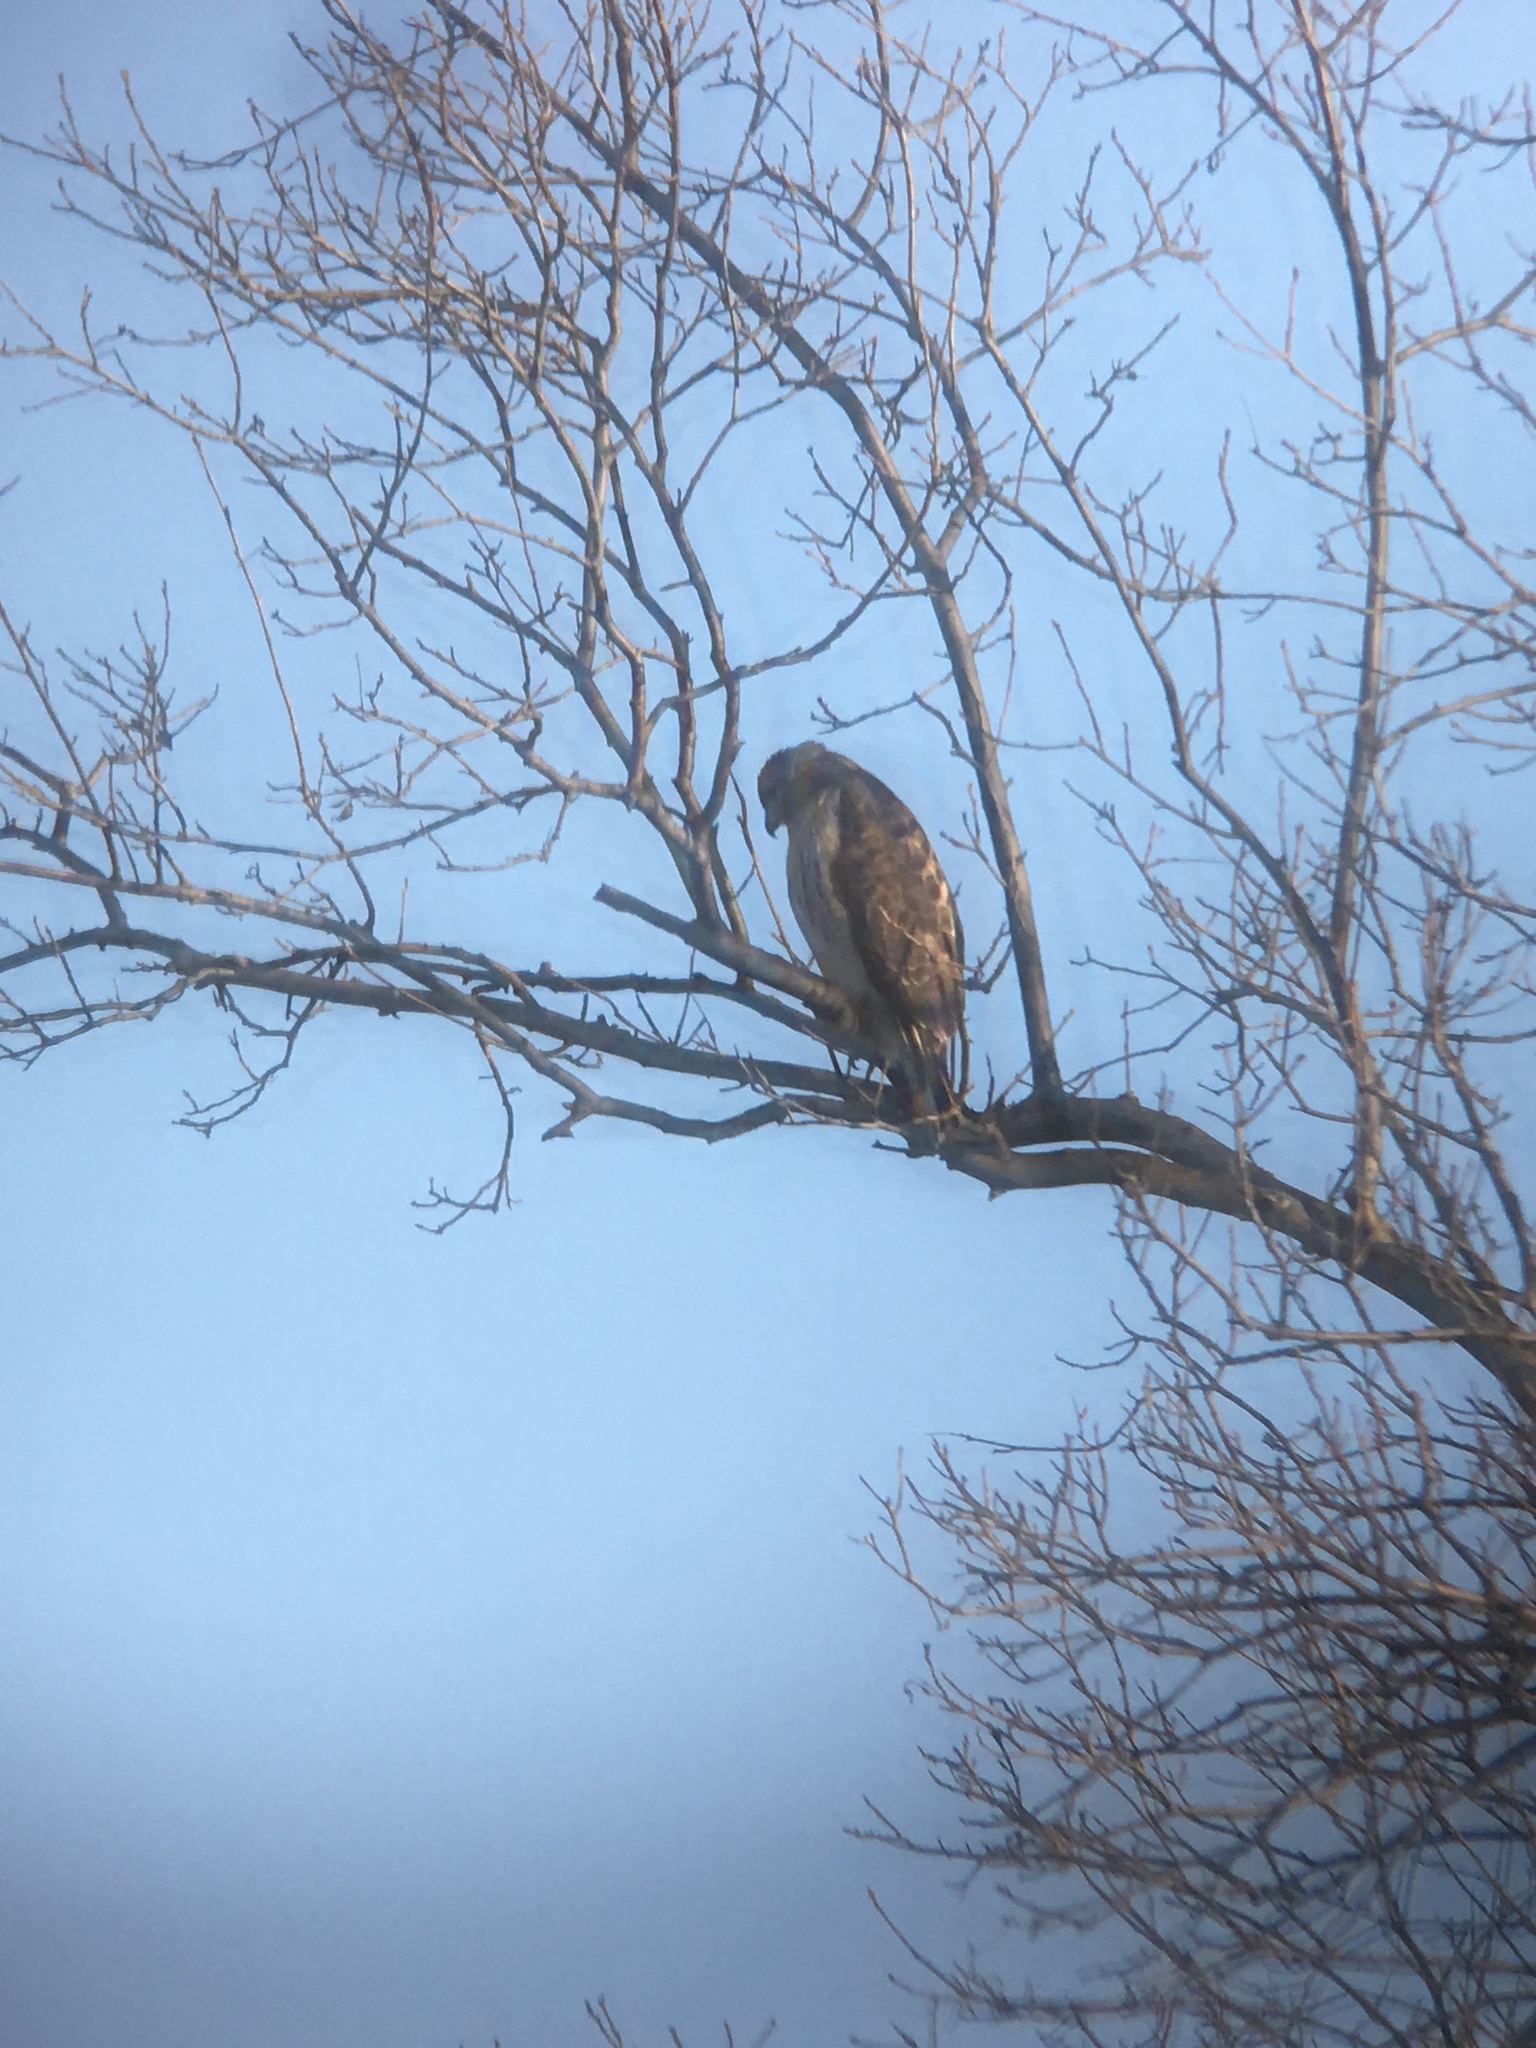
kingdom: Animalia
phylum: Chordata
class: Aves
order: Accipitriformes
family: Accipitridae
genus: Buteo
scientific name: Buteo jamaicensis
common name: Red-tailed hawk
